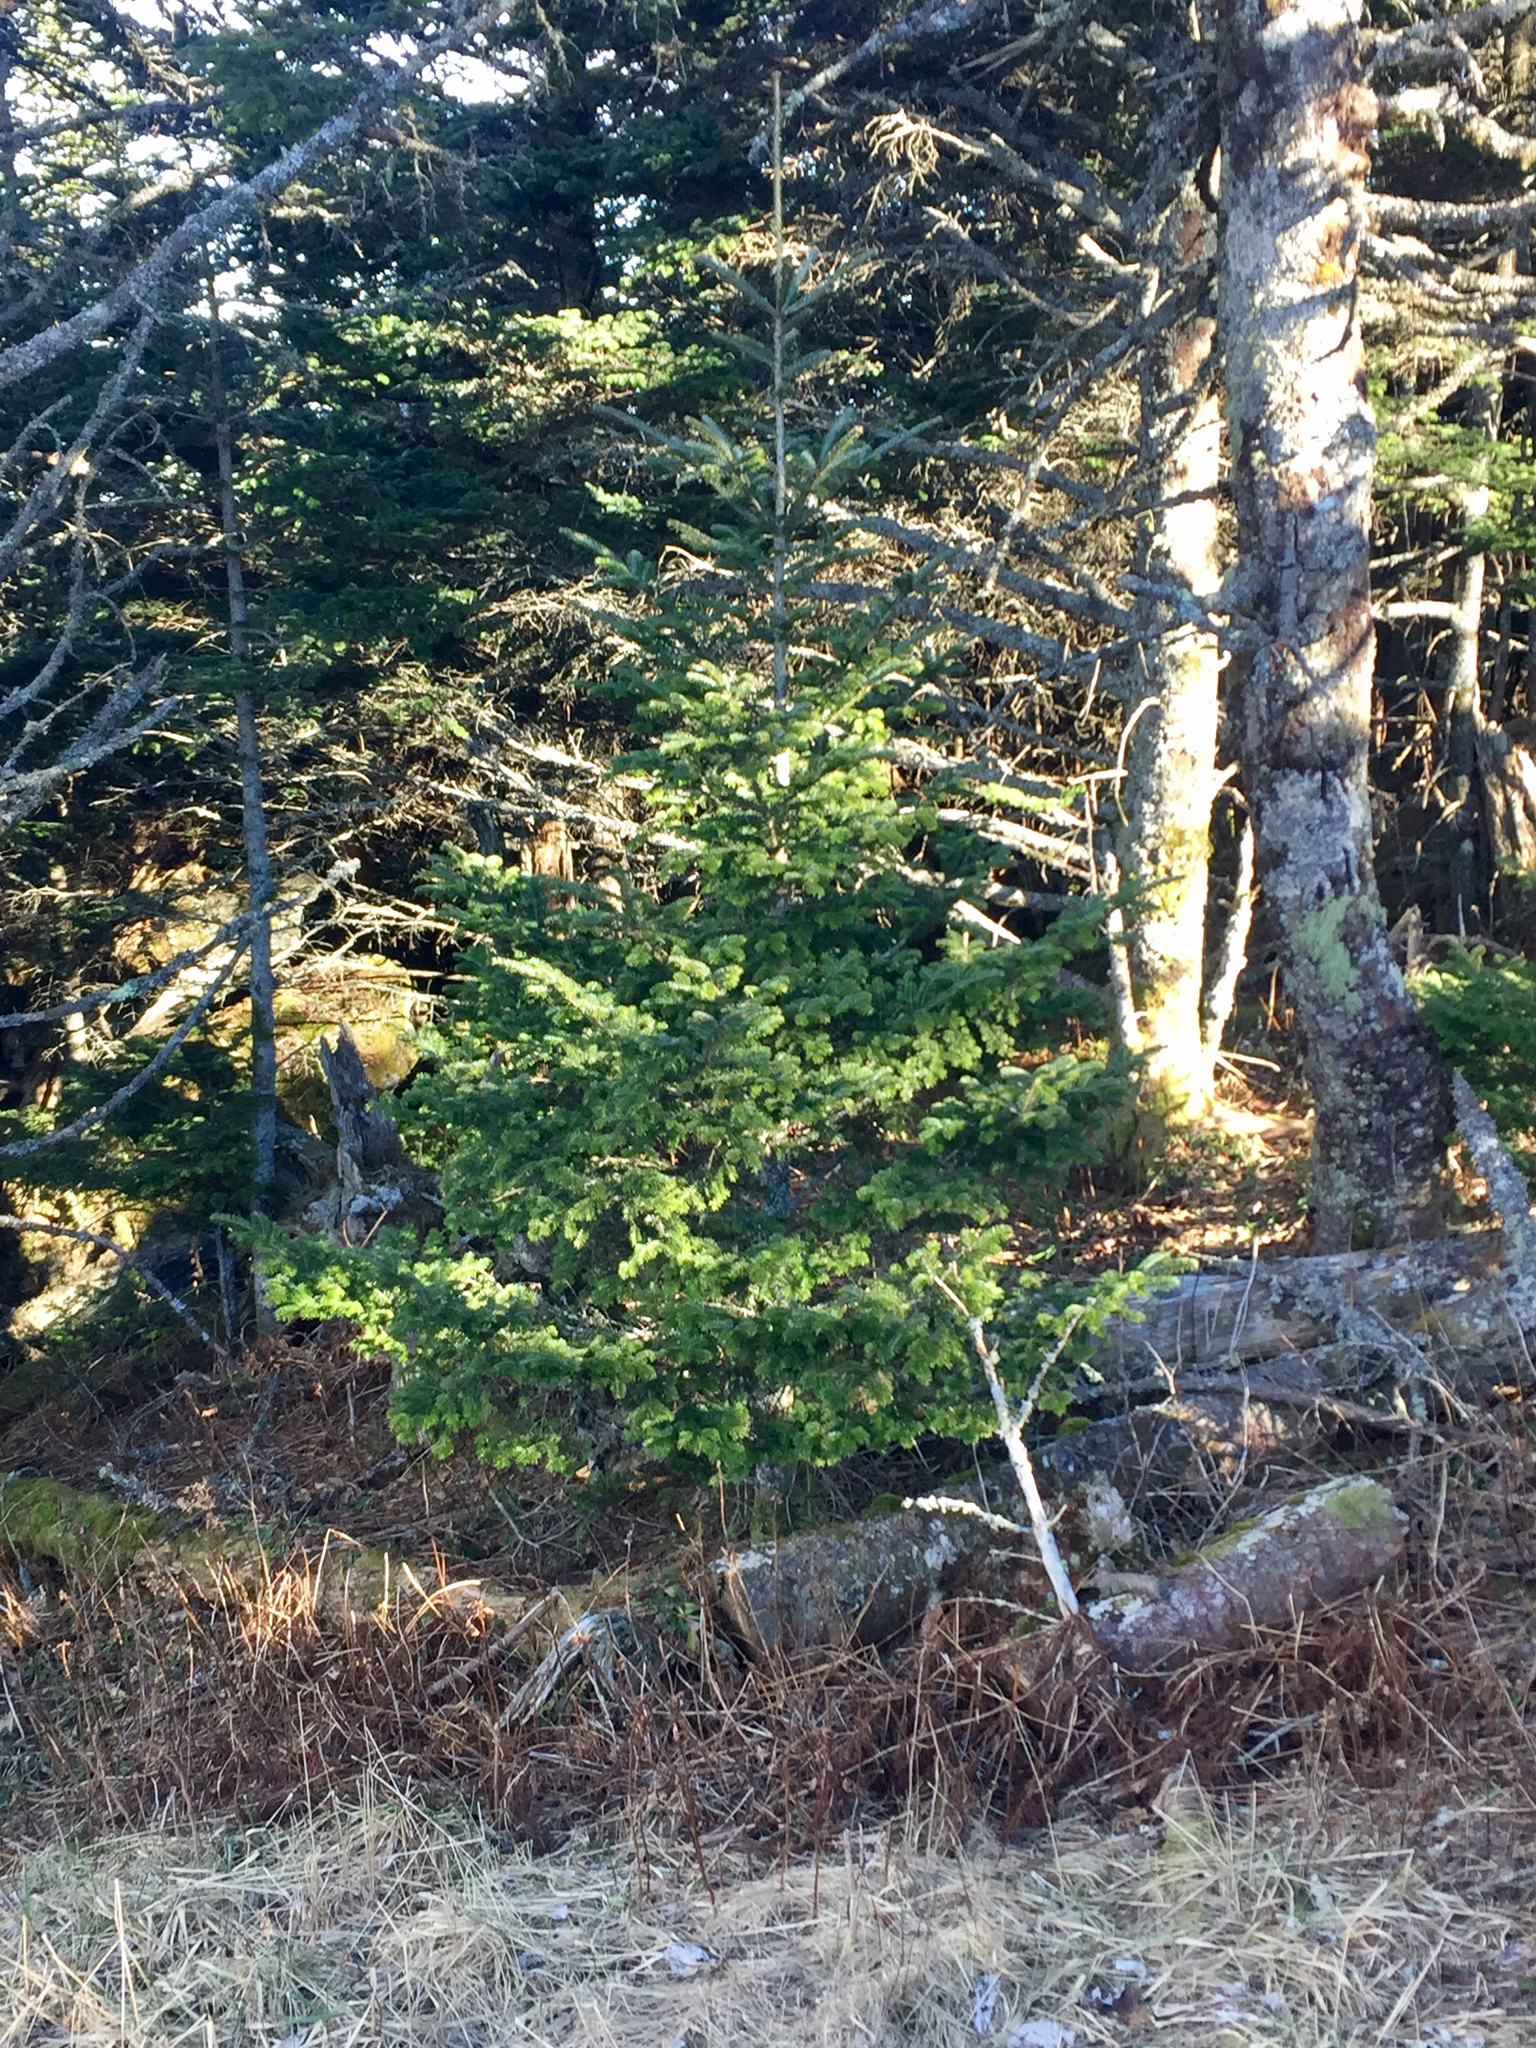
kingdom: Plantae
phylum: Tracheophyta
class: Pinopsida
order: Pinales
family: Pinaceae
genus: Abies
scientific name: Abies fraseri
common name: Fraser fir
